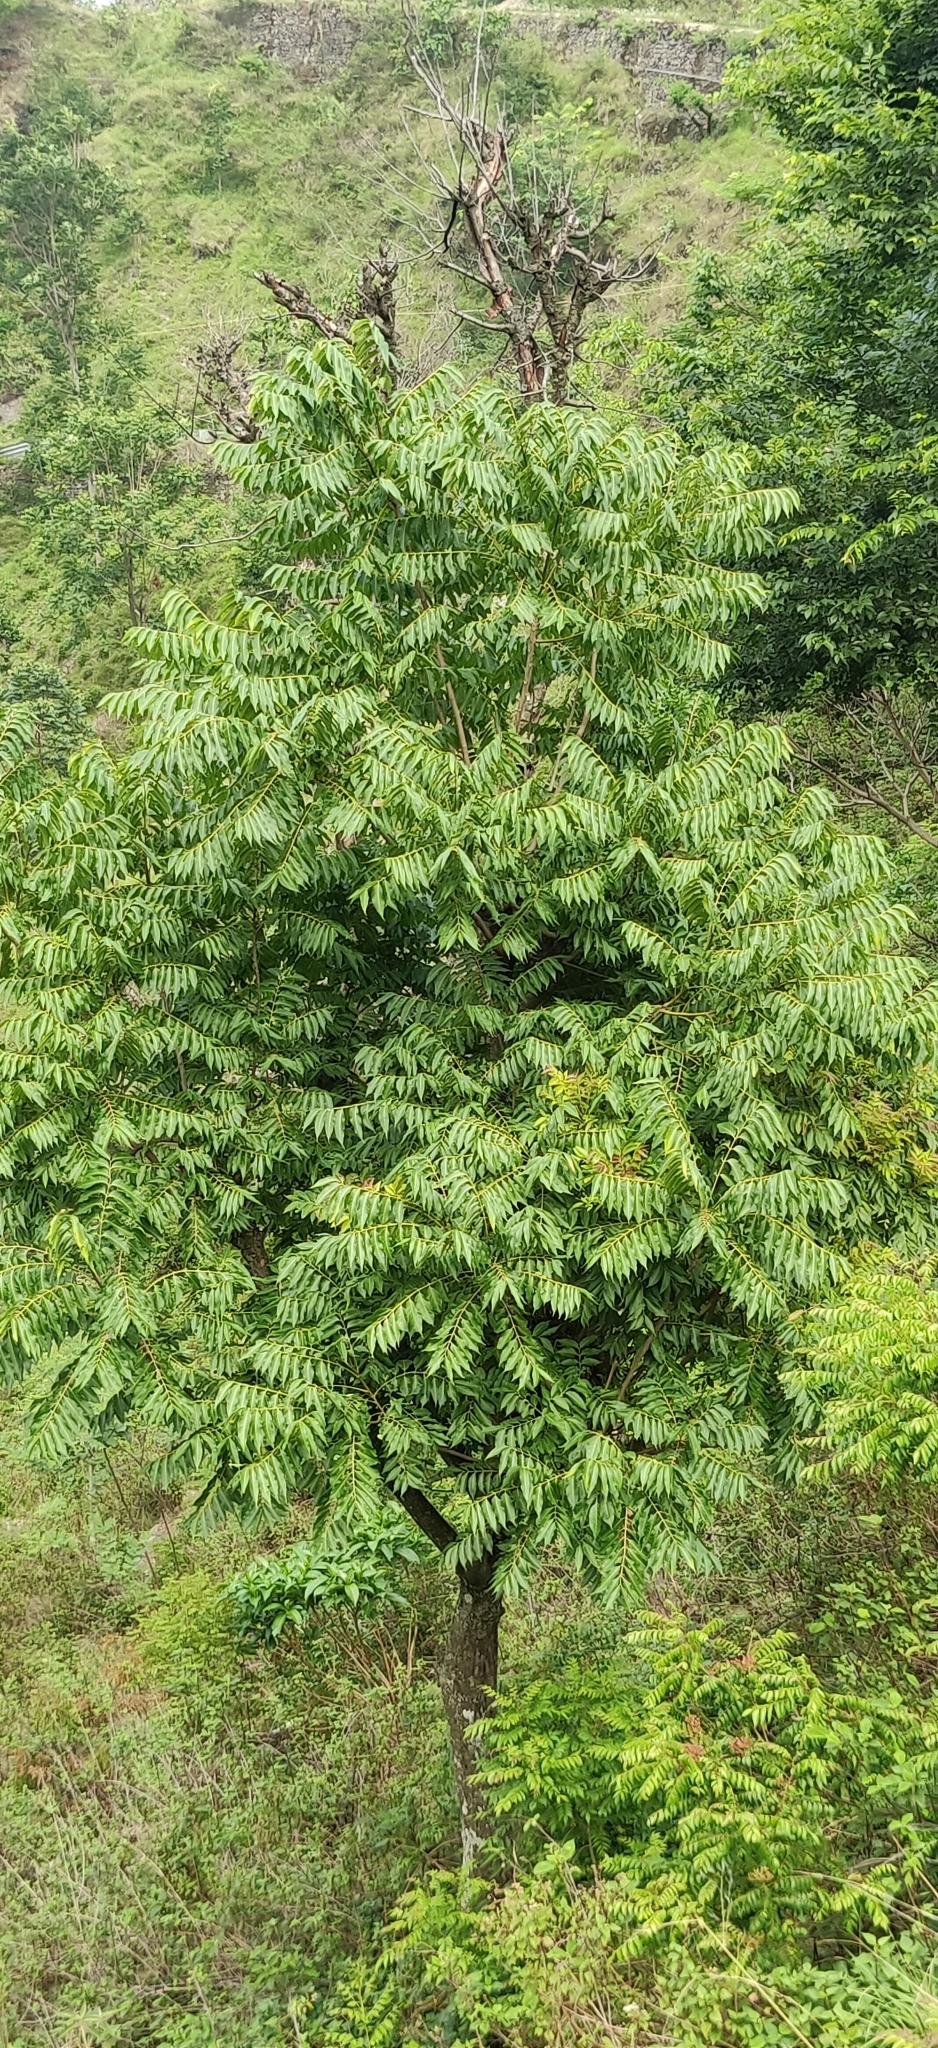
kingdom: Plantae
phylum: Tracheophyta
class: Magnoliopsida
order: Sapindales
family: Meliaceae
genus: Toona
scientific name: Toona ciliata
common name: Australian redcedar
